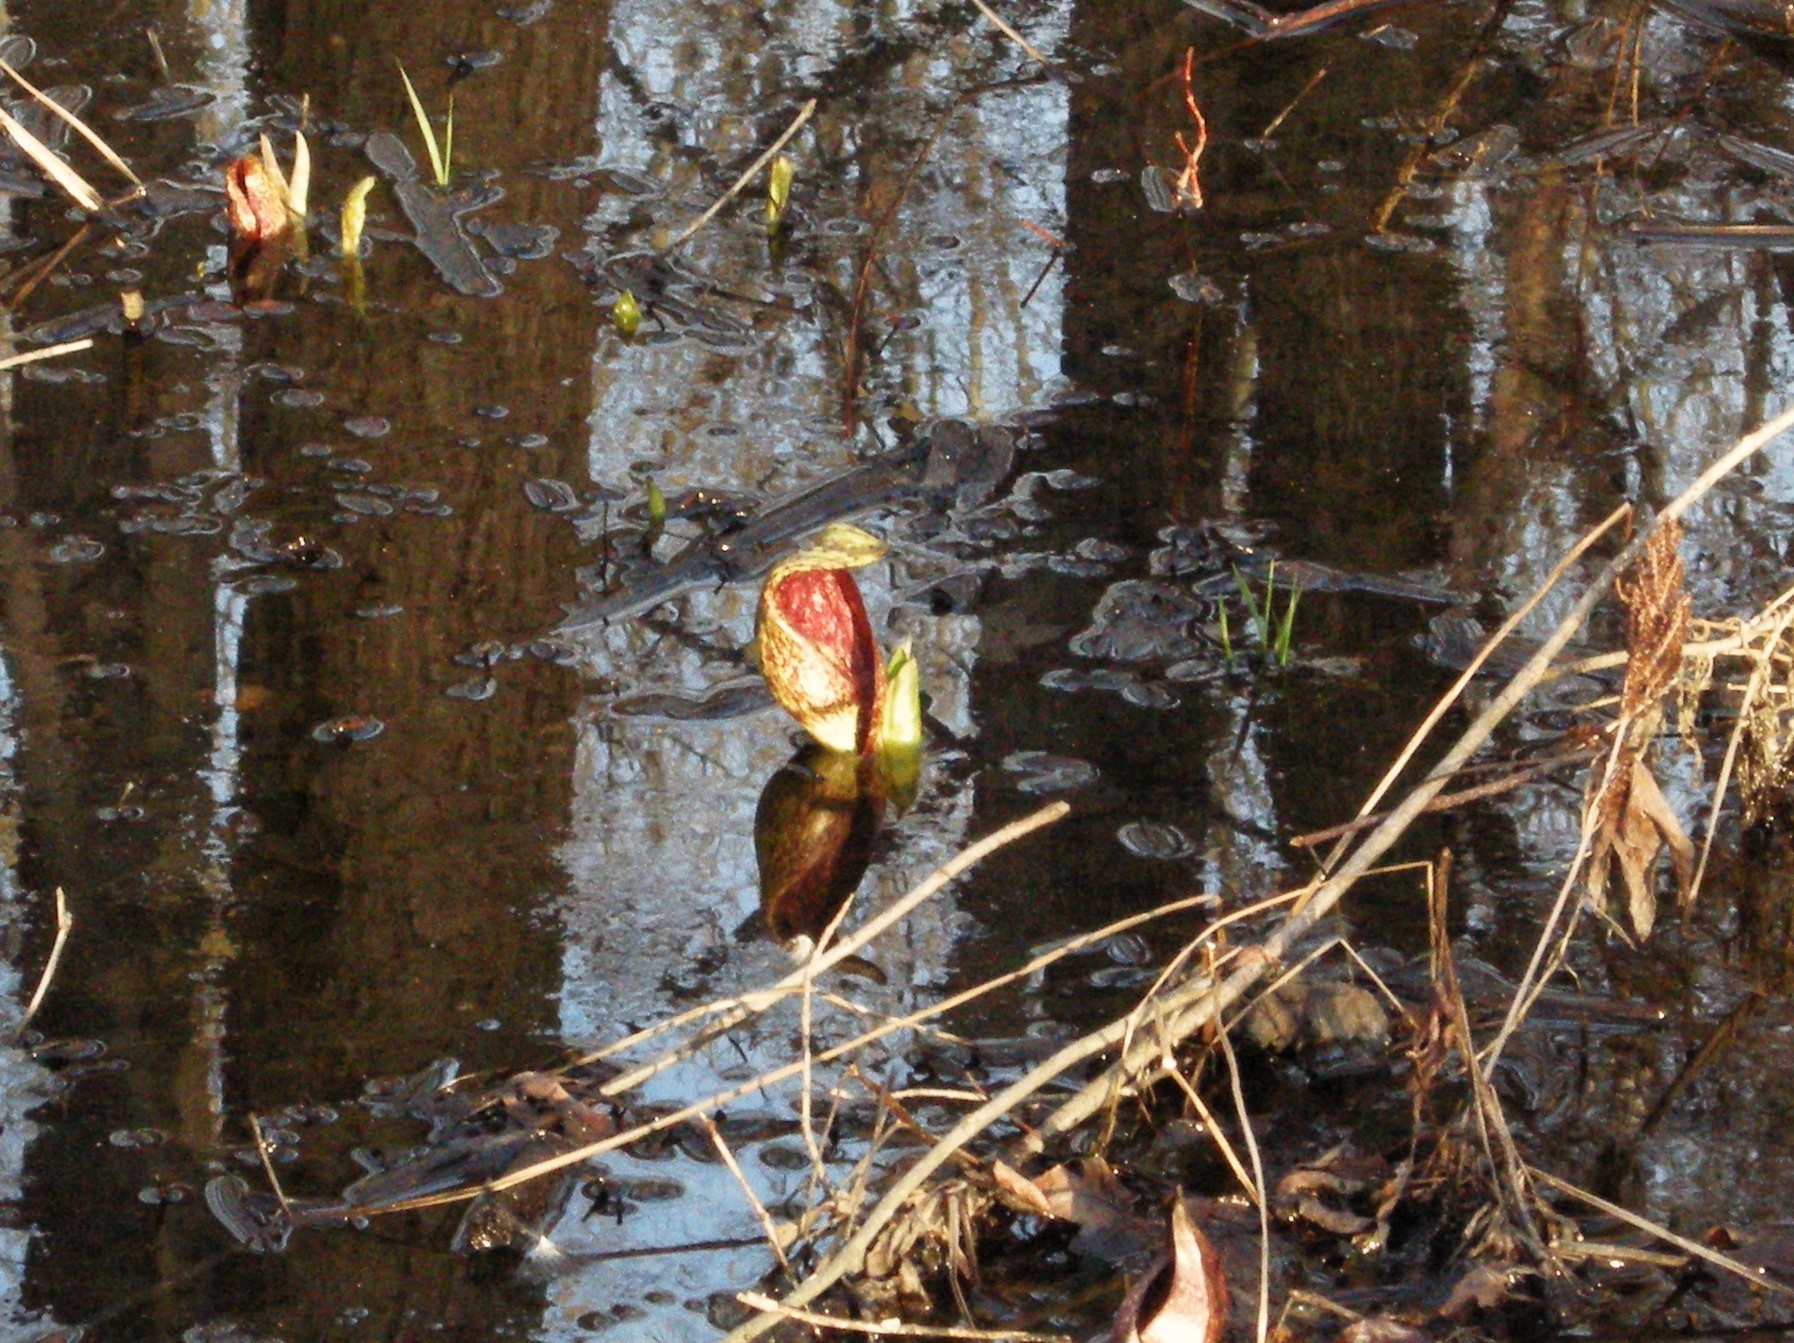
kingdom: Plantae
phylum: Tracheophyta
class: Liliopsida
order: Alismatales
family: Araceae
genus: Symplocarpus
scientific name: Symplocarpus foetidus
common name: Eastern skunk cabbage
